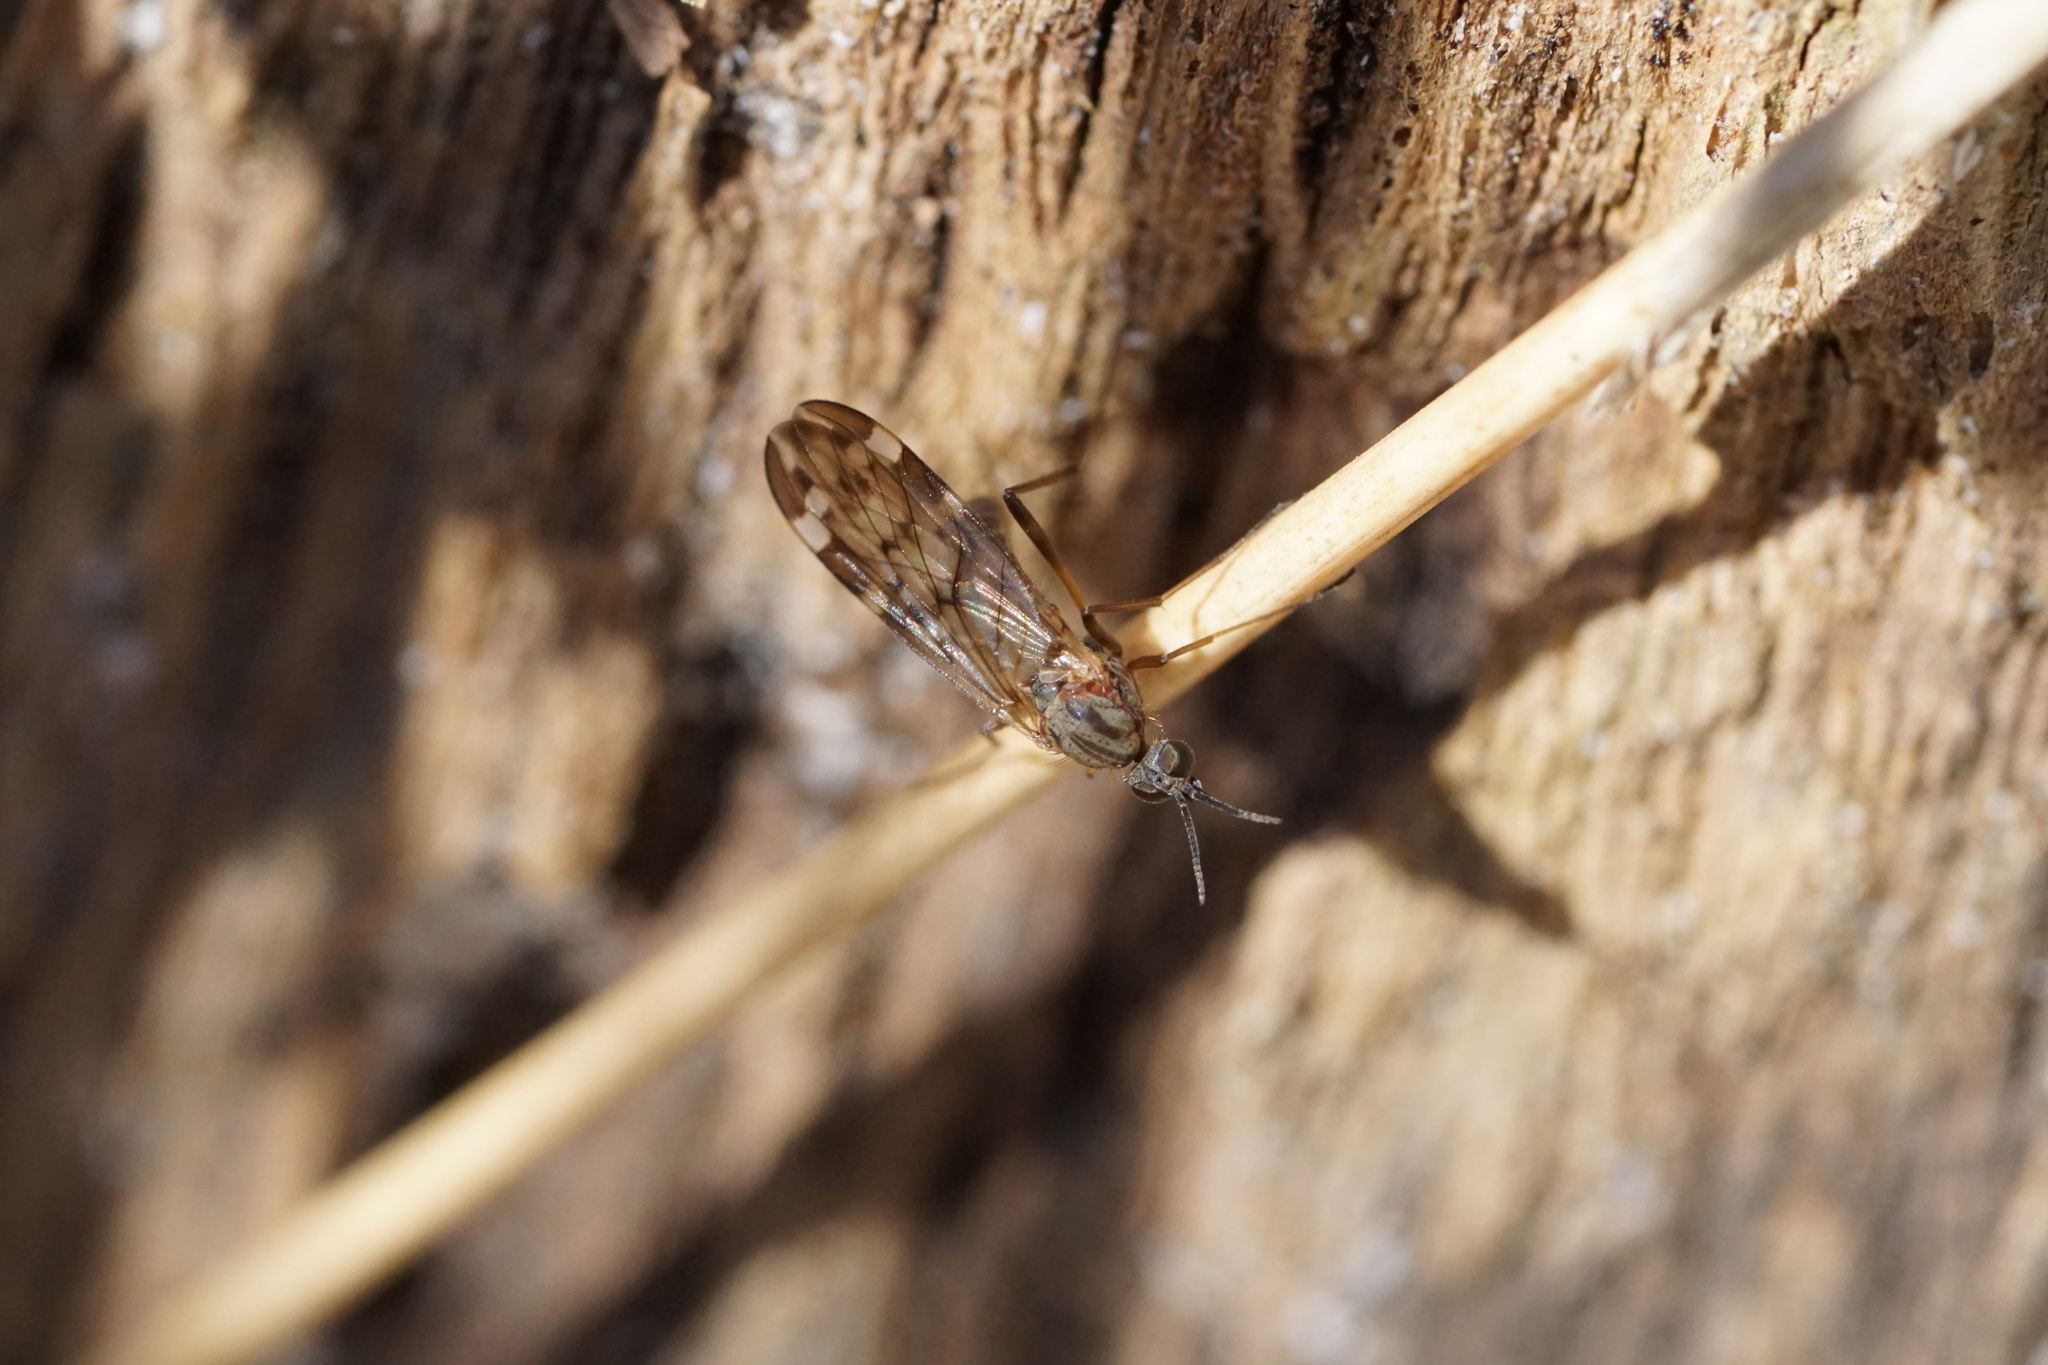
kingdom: Animalia
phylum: Arthropoda
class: Insecta
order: Diptera
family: Anisopodidae
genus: Sylvicola
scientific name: Sylvicola alternata
